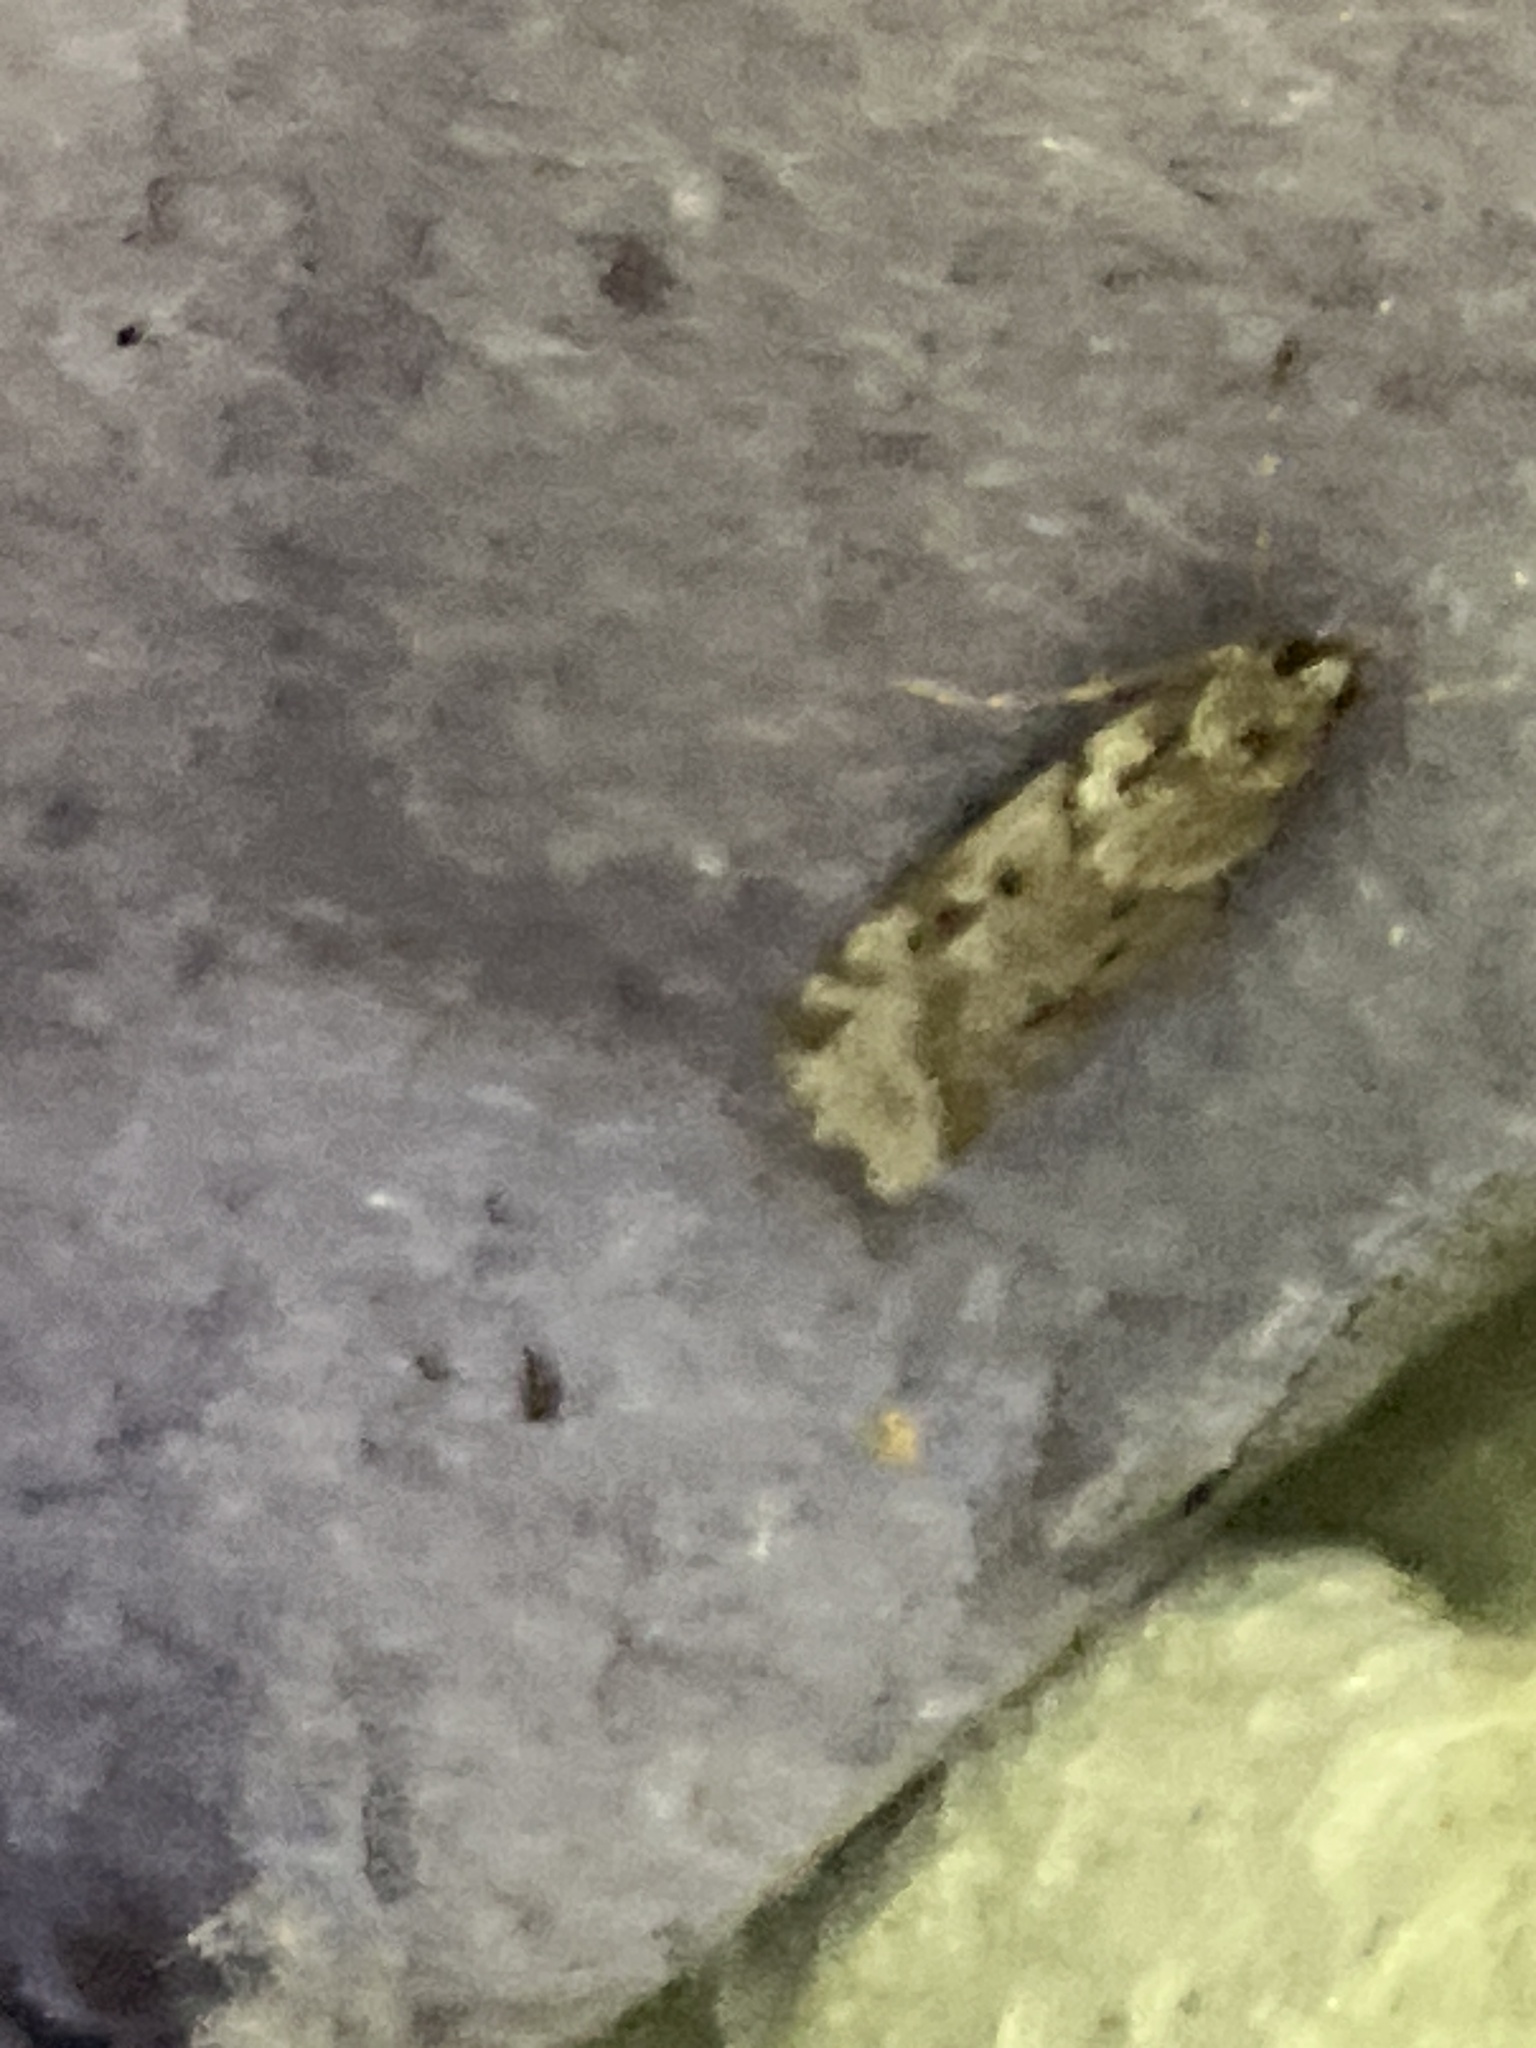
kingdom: Animalia
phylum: Arthropoda
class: Insecta
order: Lepidoptera
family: Crambidae
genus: Eudonia
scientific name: Eudonia angustea
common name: Narrow-winged grey
